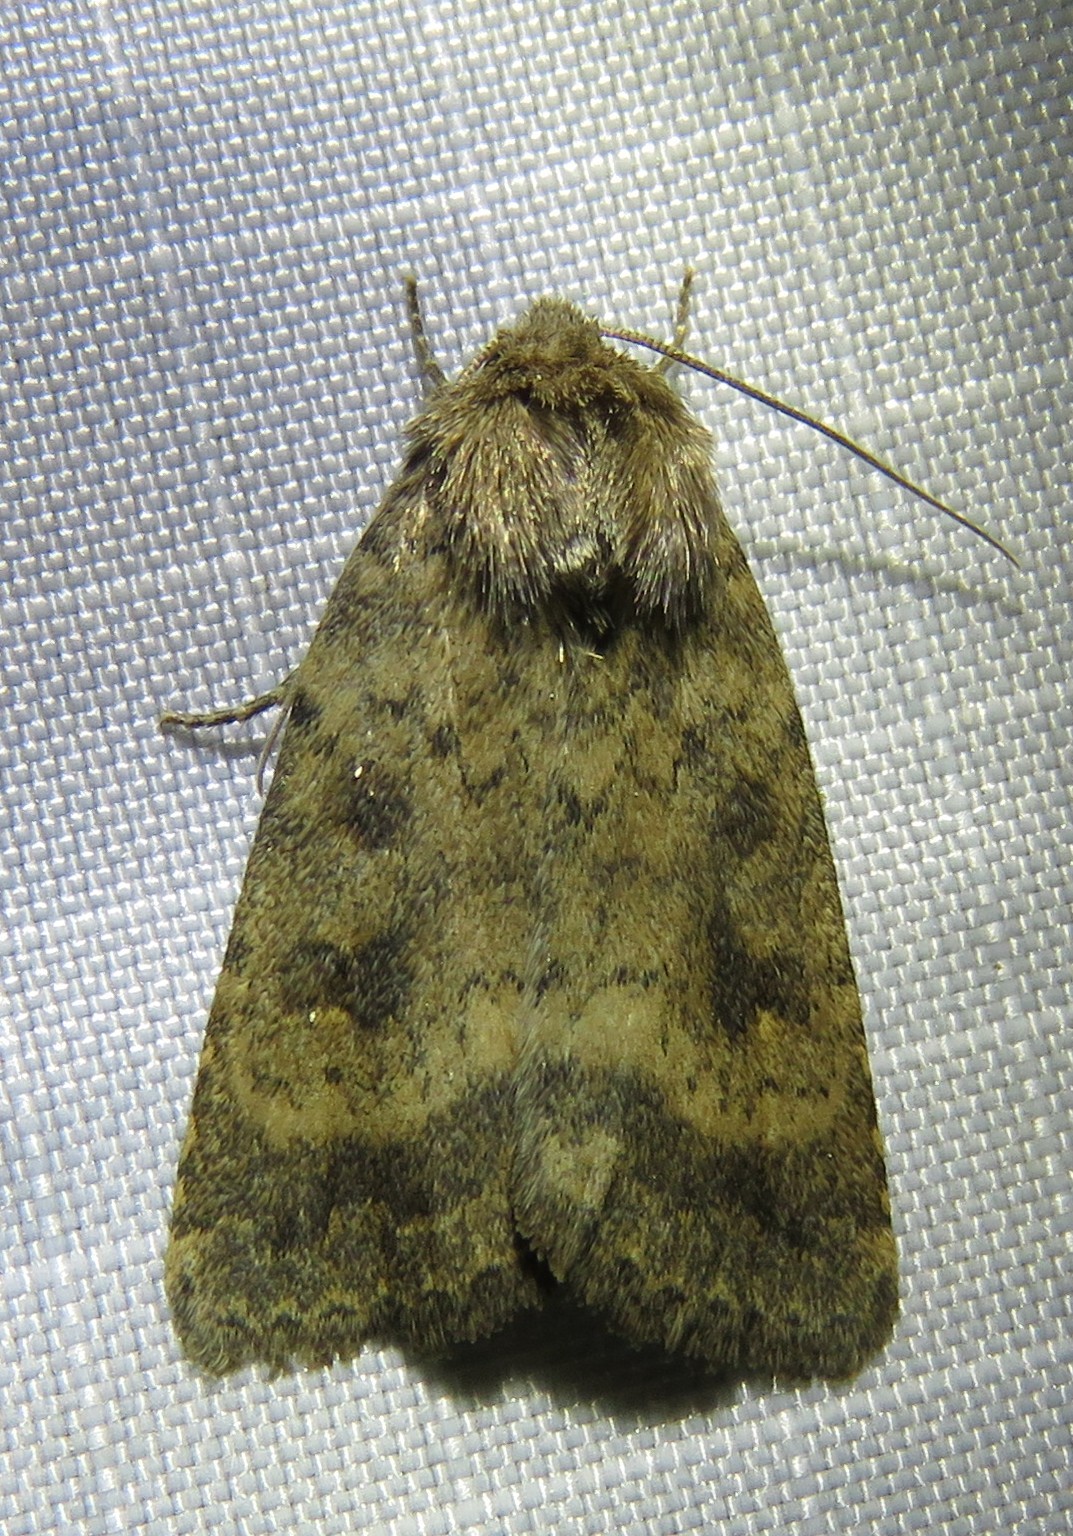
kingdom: Animalia
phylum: Arthropoda
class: Insecta
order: Lepidoptera
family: Noctuidae
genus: Caradrina
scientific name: Caradrina morpheus
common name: Mottled rustic
